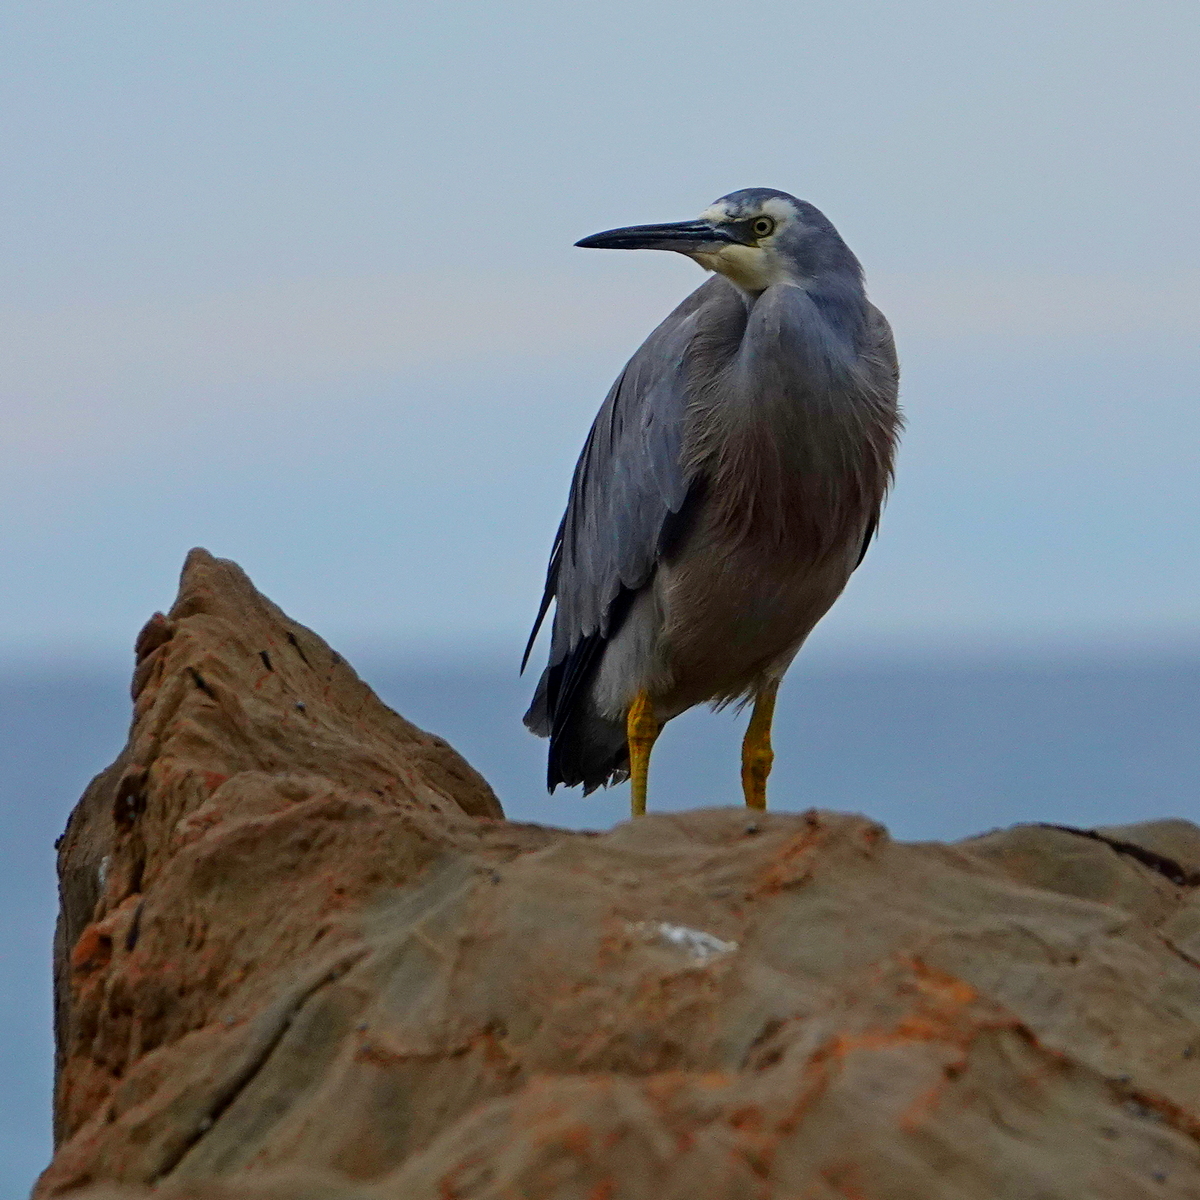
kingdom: Animalia
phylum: Chordata
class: Aves
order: Pelecaniformes
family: Ardeidae
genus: Egretta
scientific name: Egretta novaehollandiae
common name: White-faced heron
